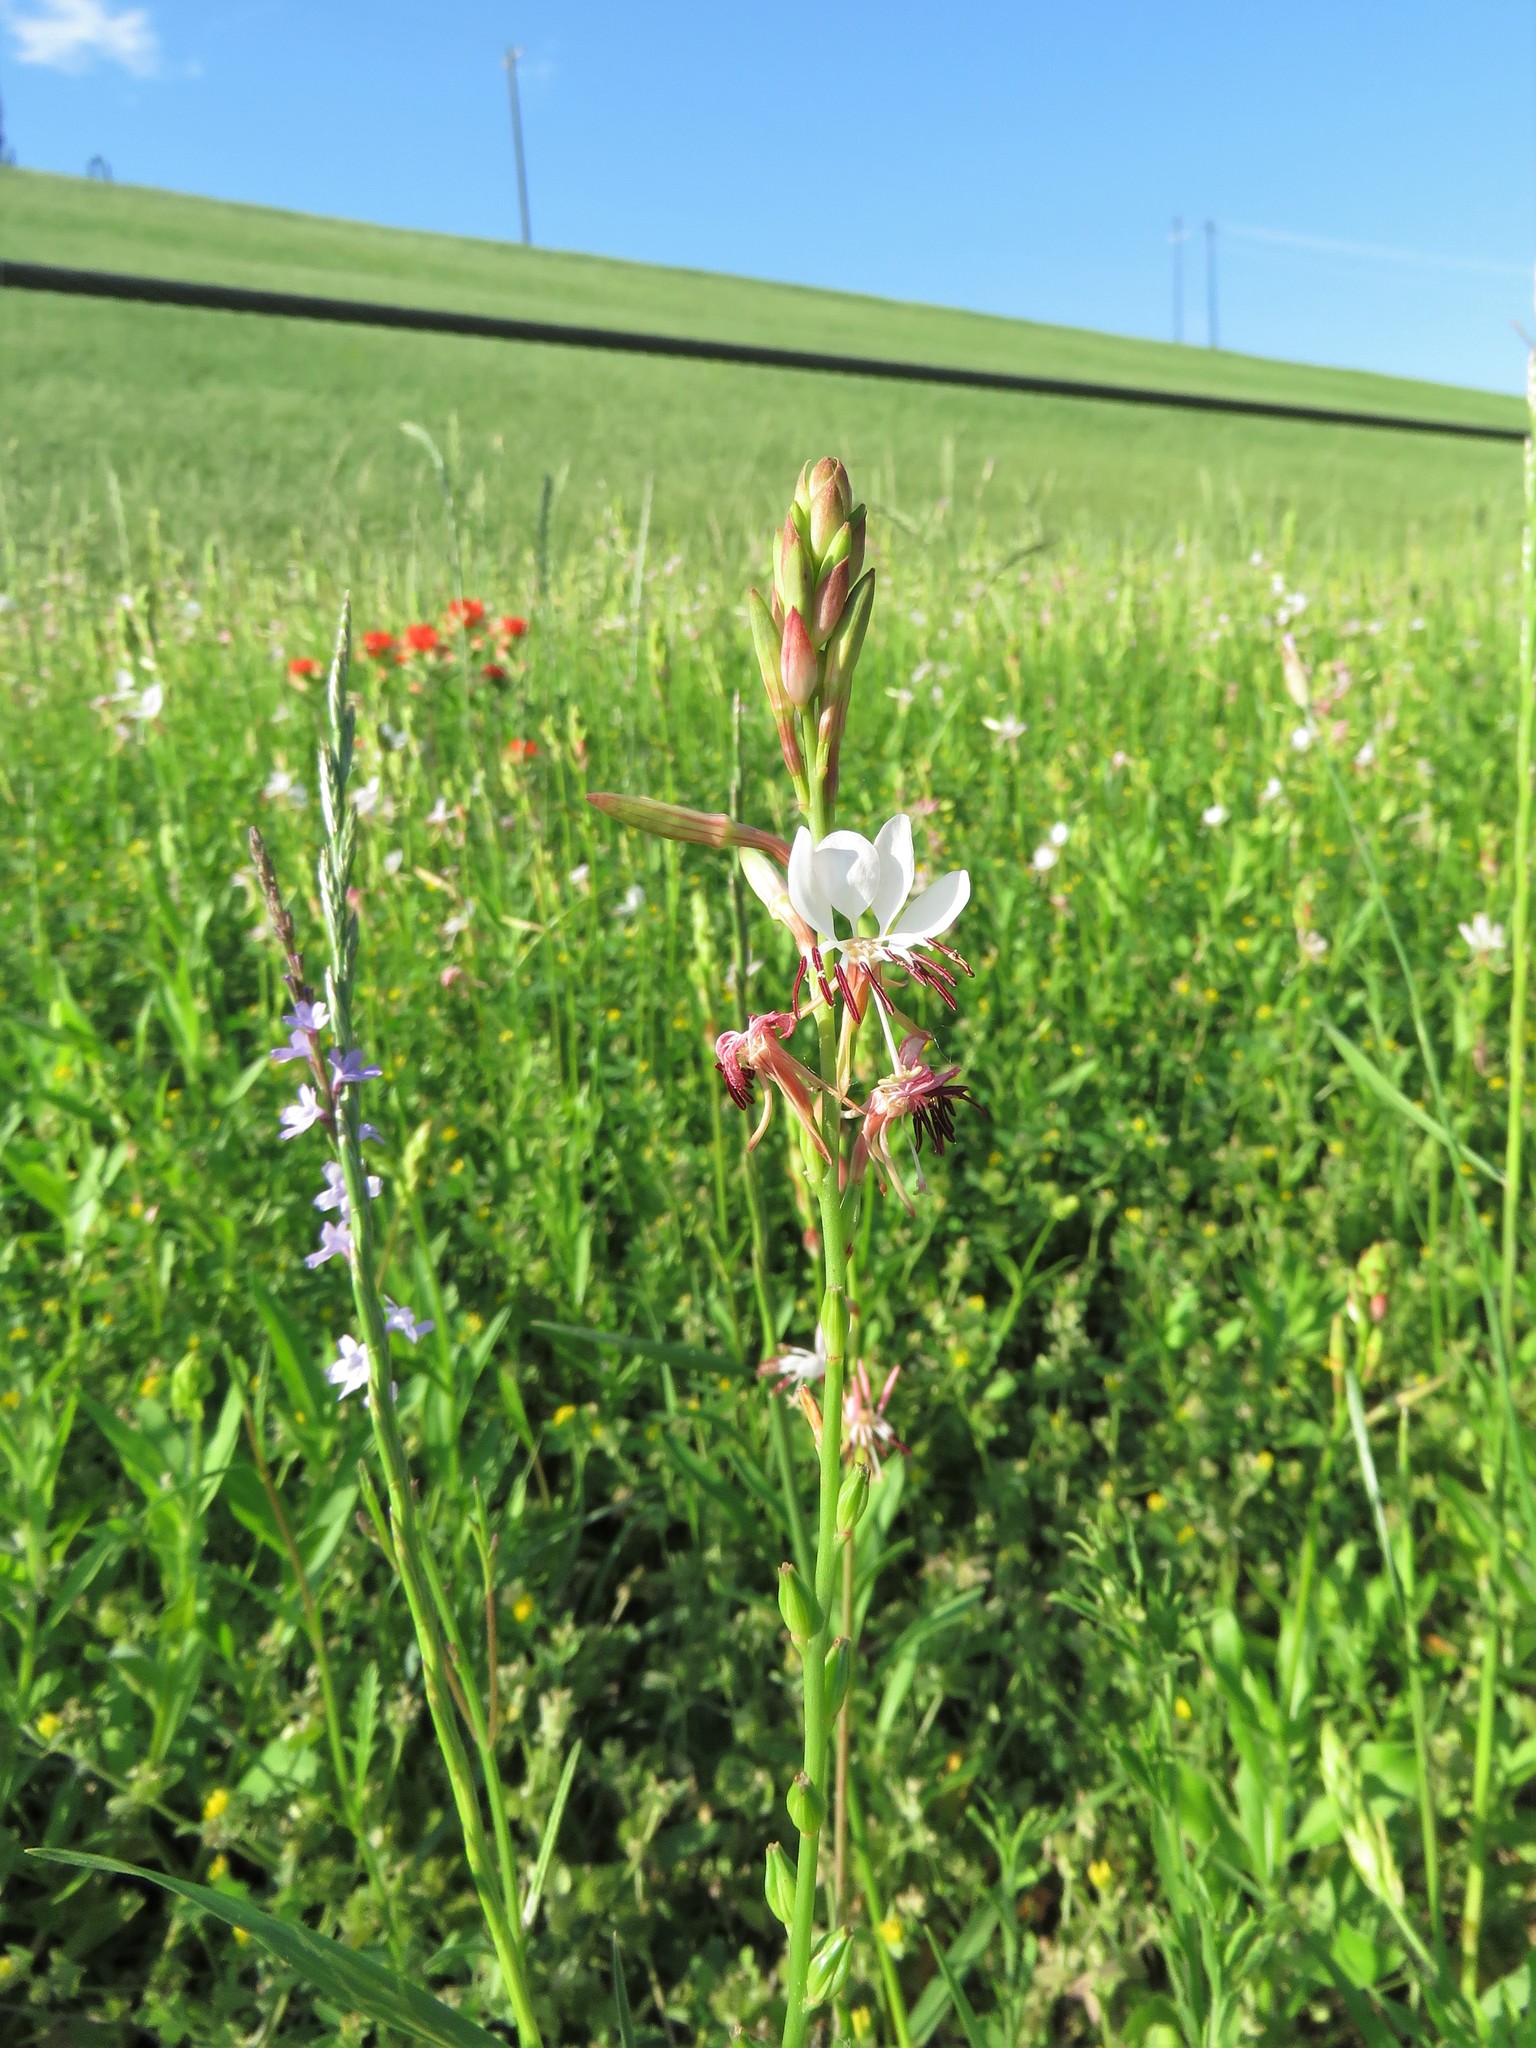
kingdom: Plantae
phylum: Tracheophyta
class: Magnoliopsida
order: Myrtales
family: Onagraceae
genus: Oenothera
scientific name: Oenothera suffulta
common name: Kisses
